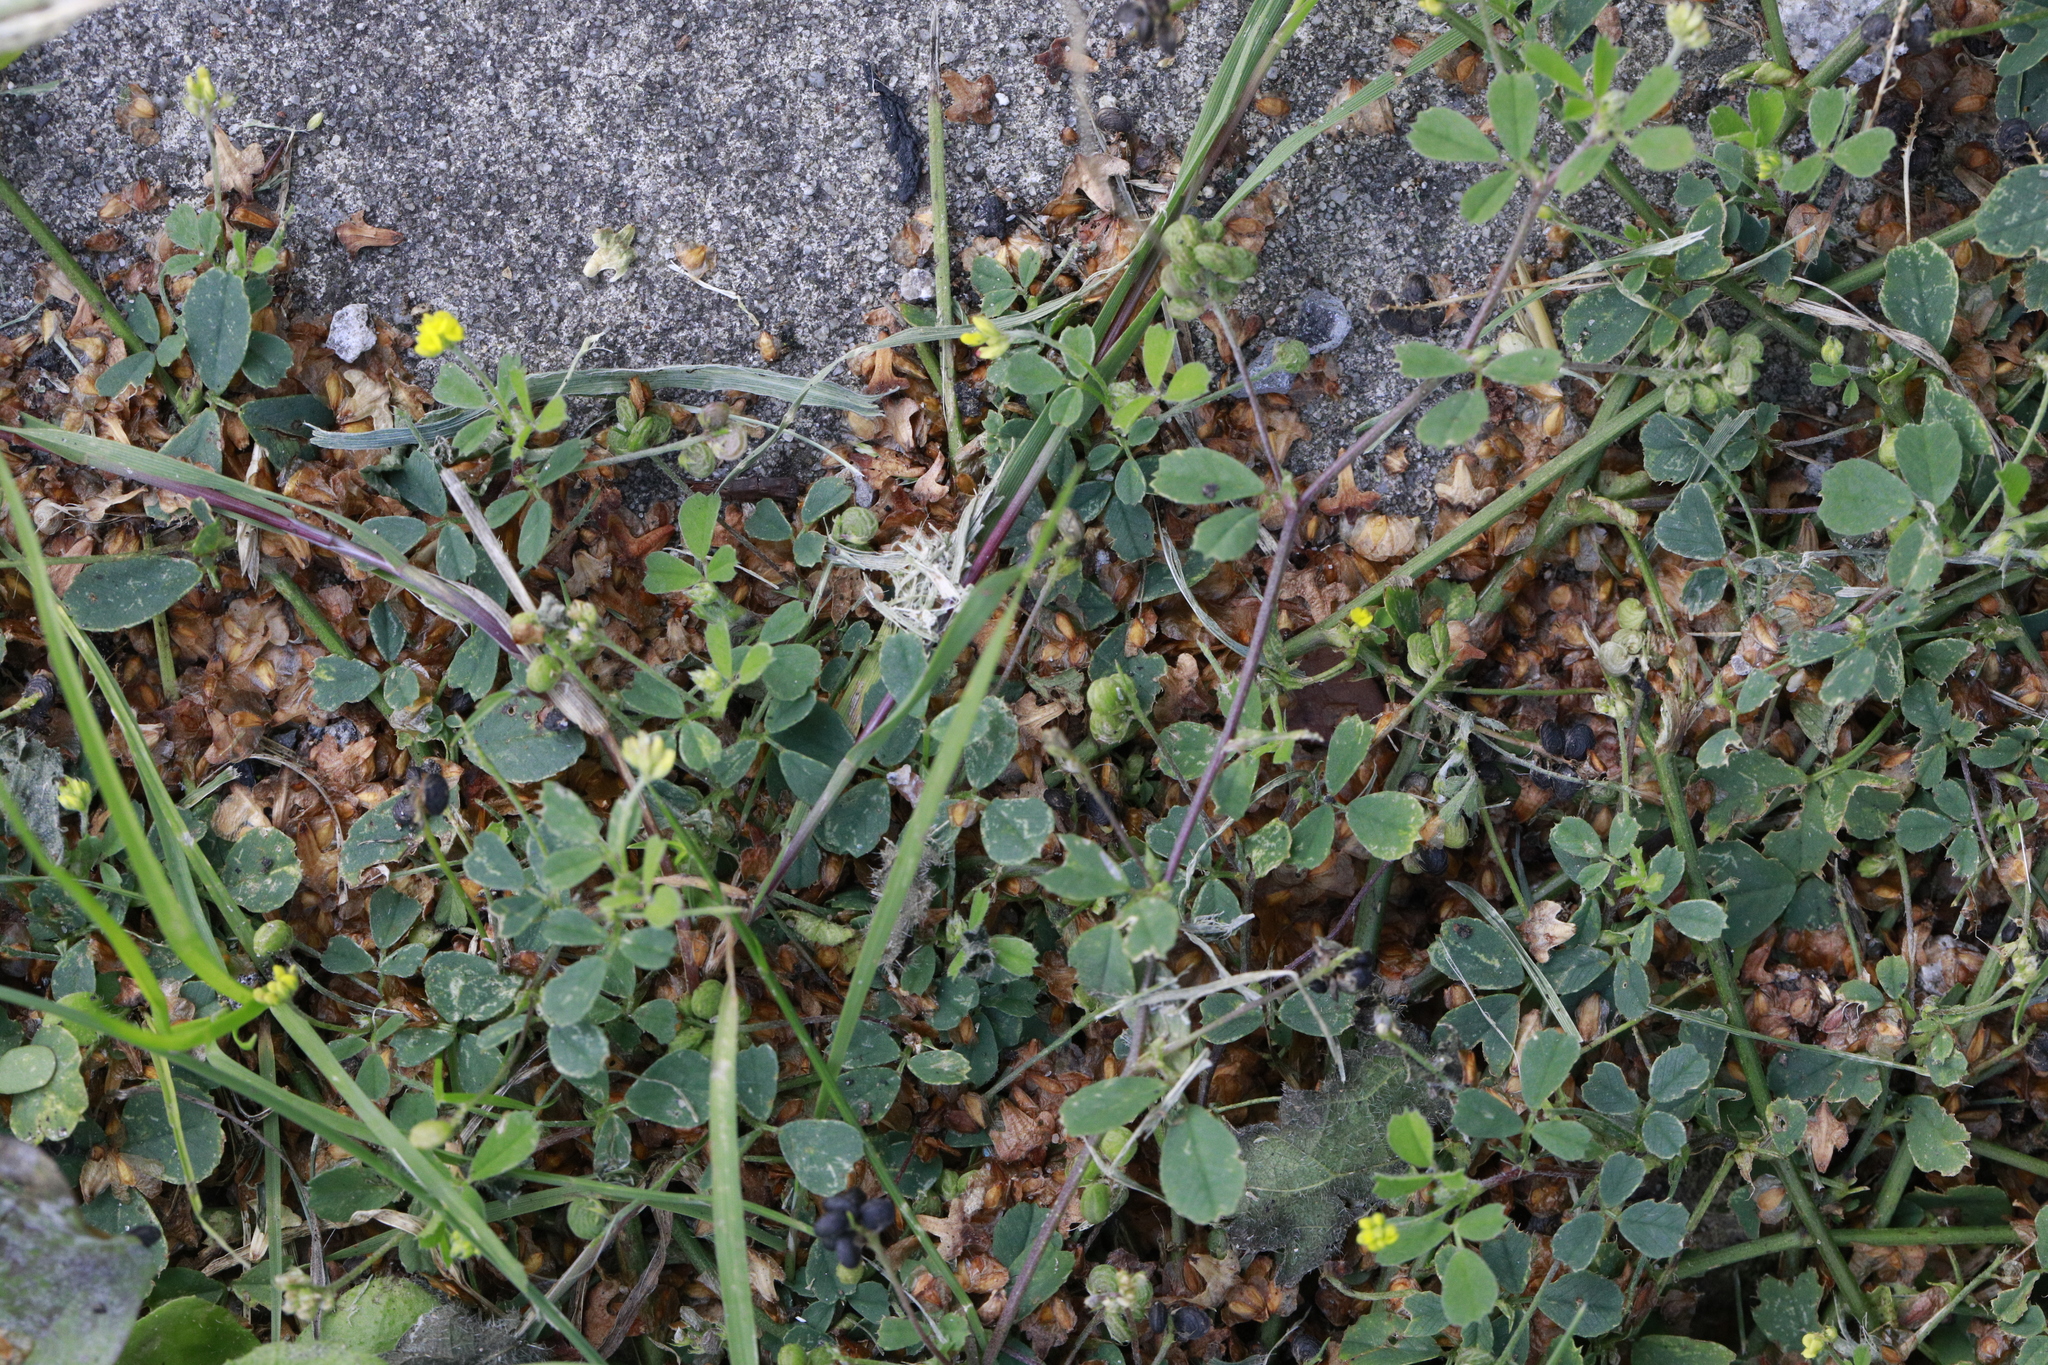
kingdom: Plantae
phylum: Tracheophyta
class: Magnoliopsida
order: Fabales
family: Fabaceae
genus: Medicago
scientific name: Medicago lupulina
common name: Black medick
